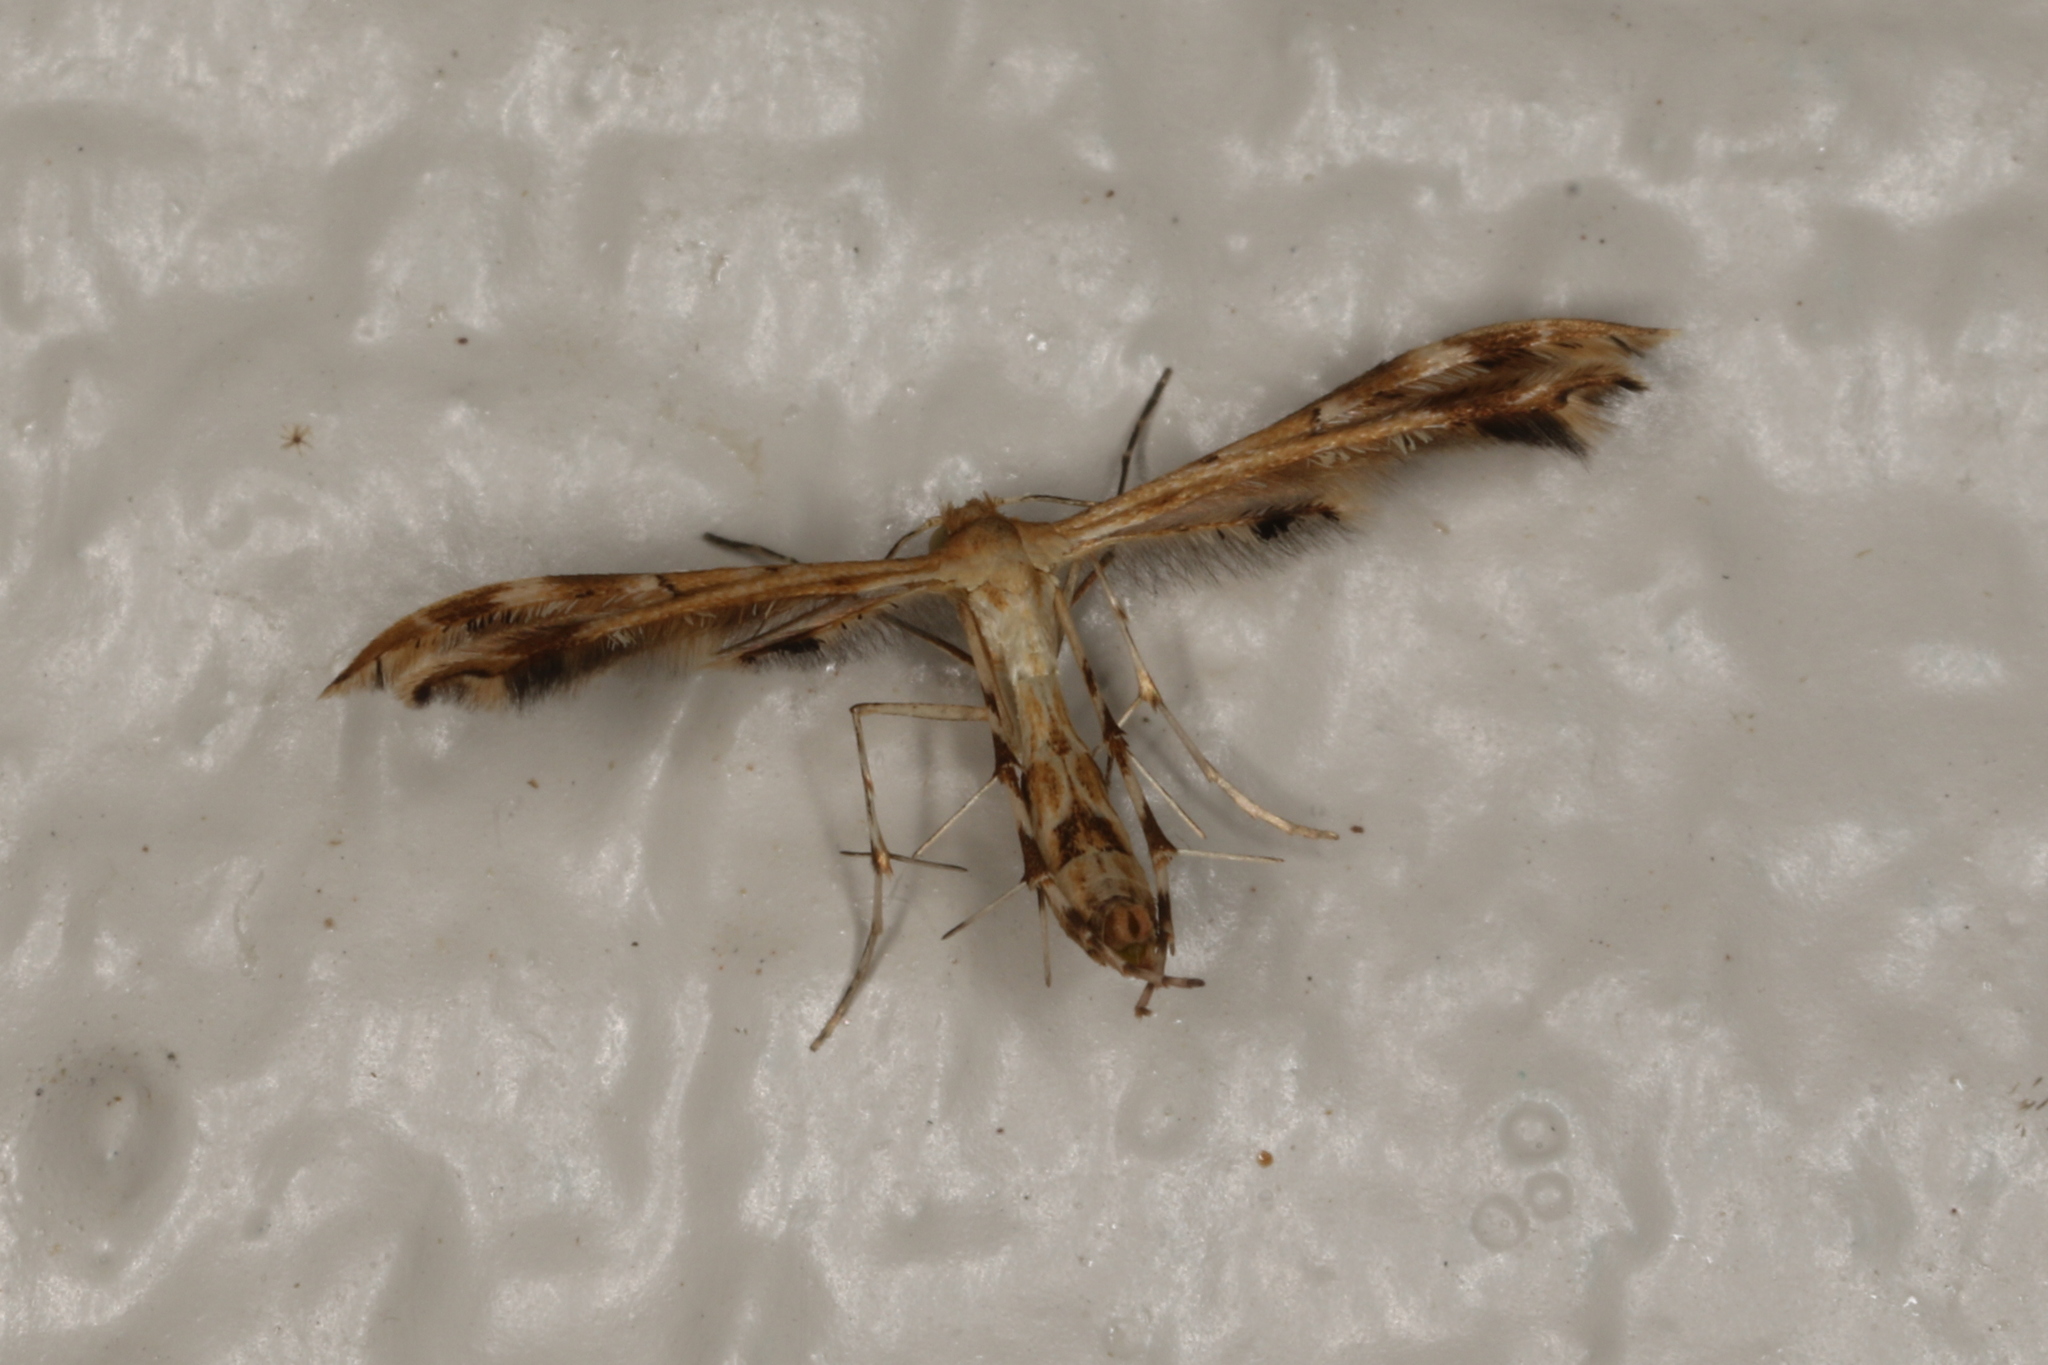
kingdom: Animalia
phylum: Arthropoda
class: Insecta
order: Lepidoptera
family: Pterophoridae
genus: Sphenarches
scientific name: Sphenarches anisodactylus
